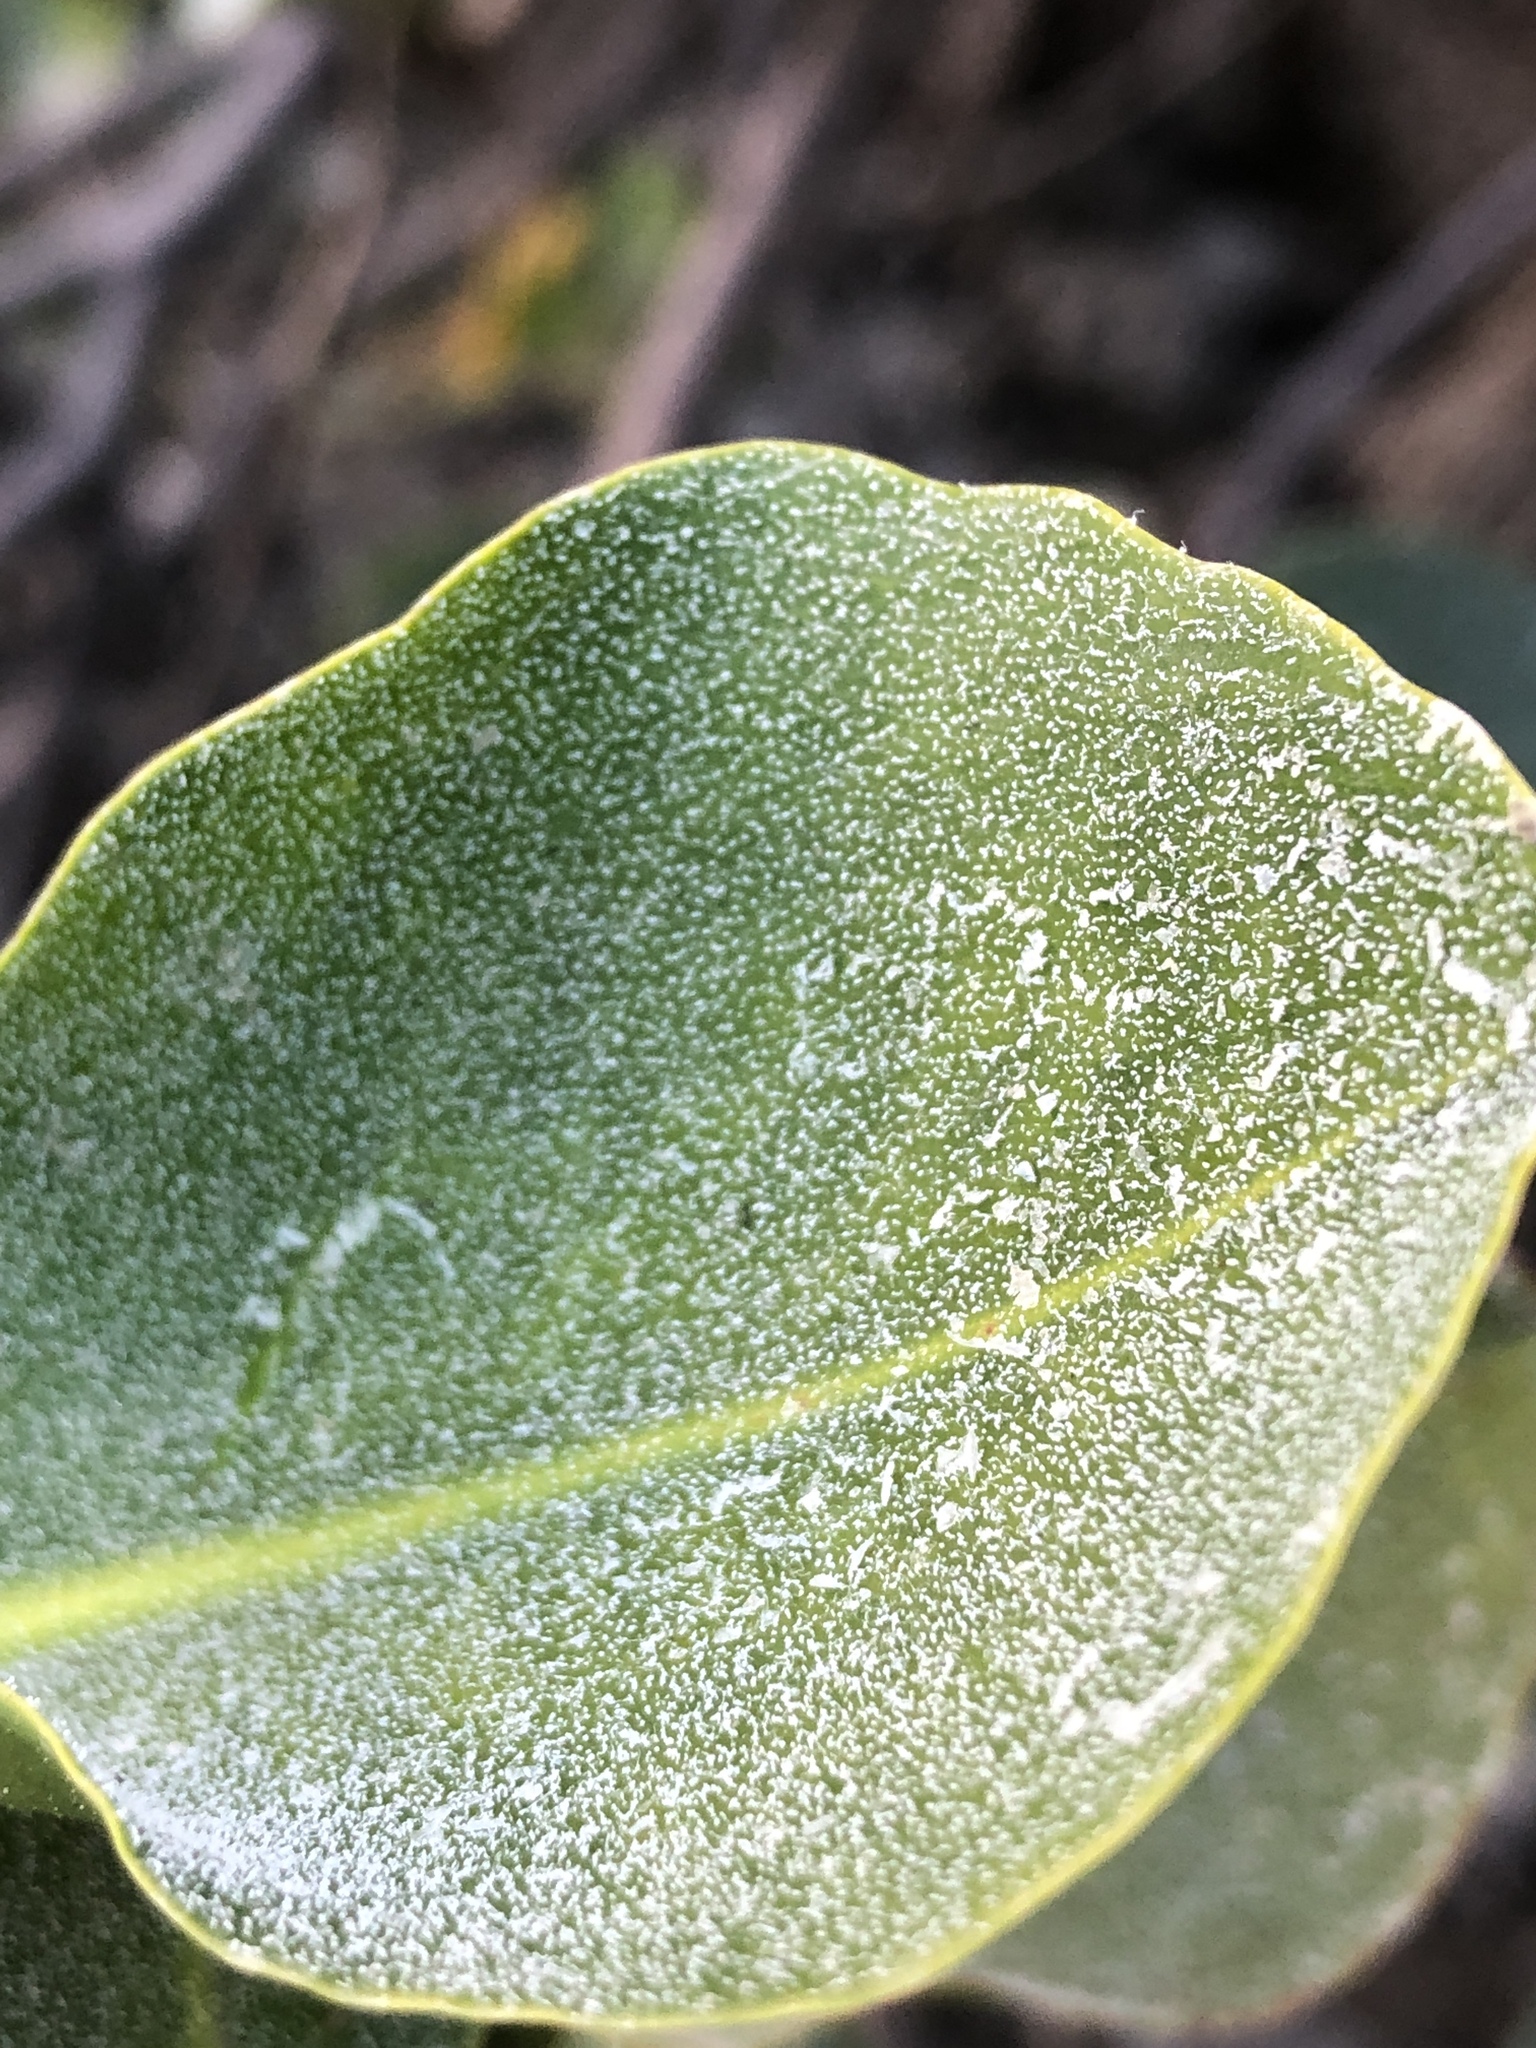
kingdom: Plantae
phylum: Tracheophyta
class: Magnoliopsida
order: Caryophyllales
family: Plumbaginaceae
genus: Aegialitis
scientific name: Aegialitis annulata
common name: Club mangrove
